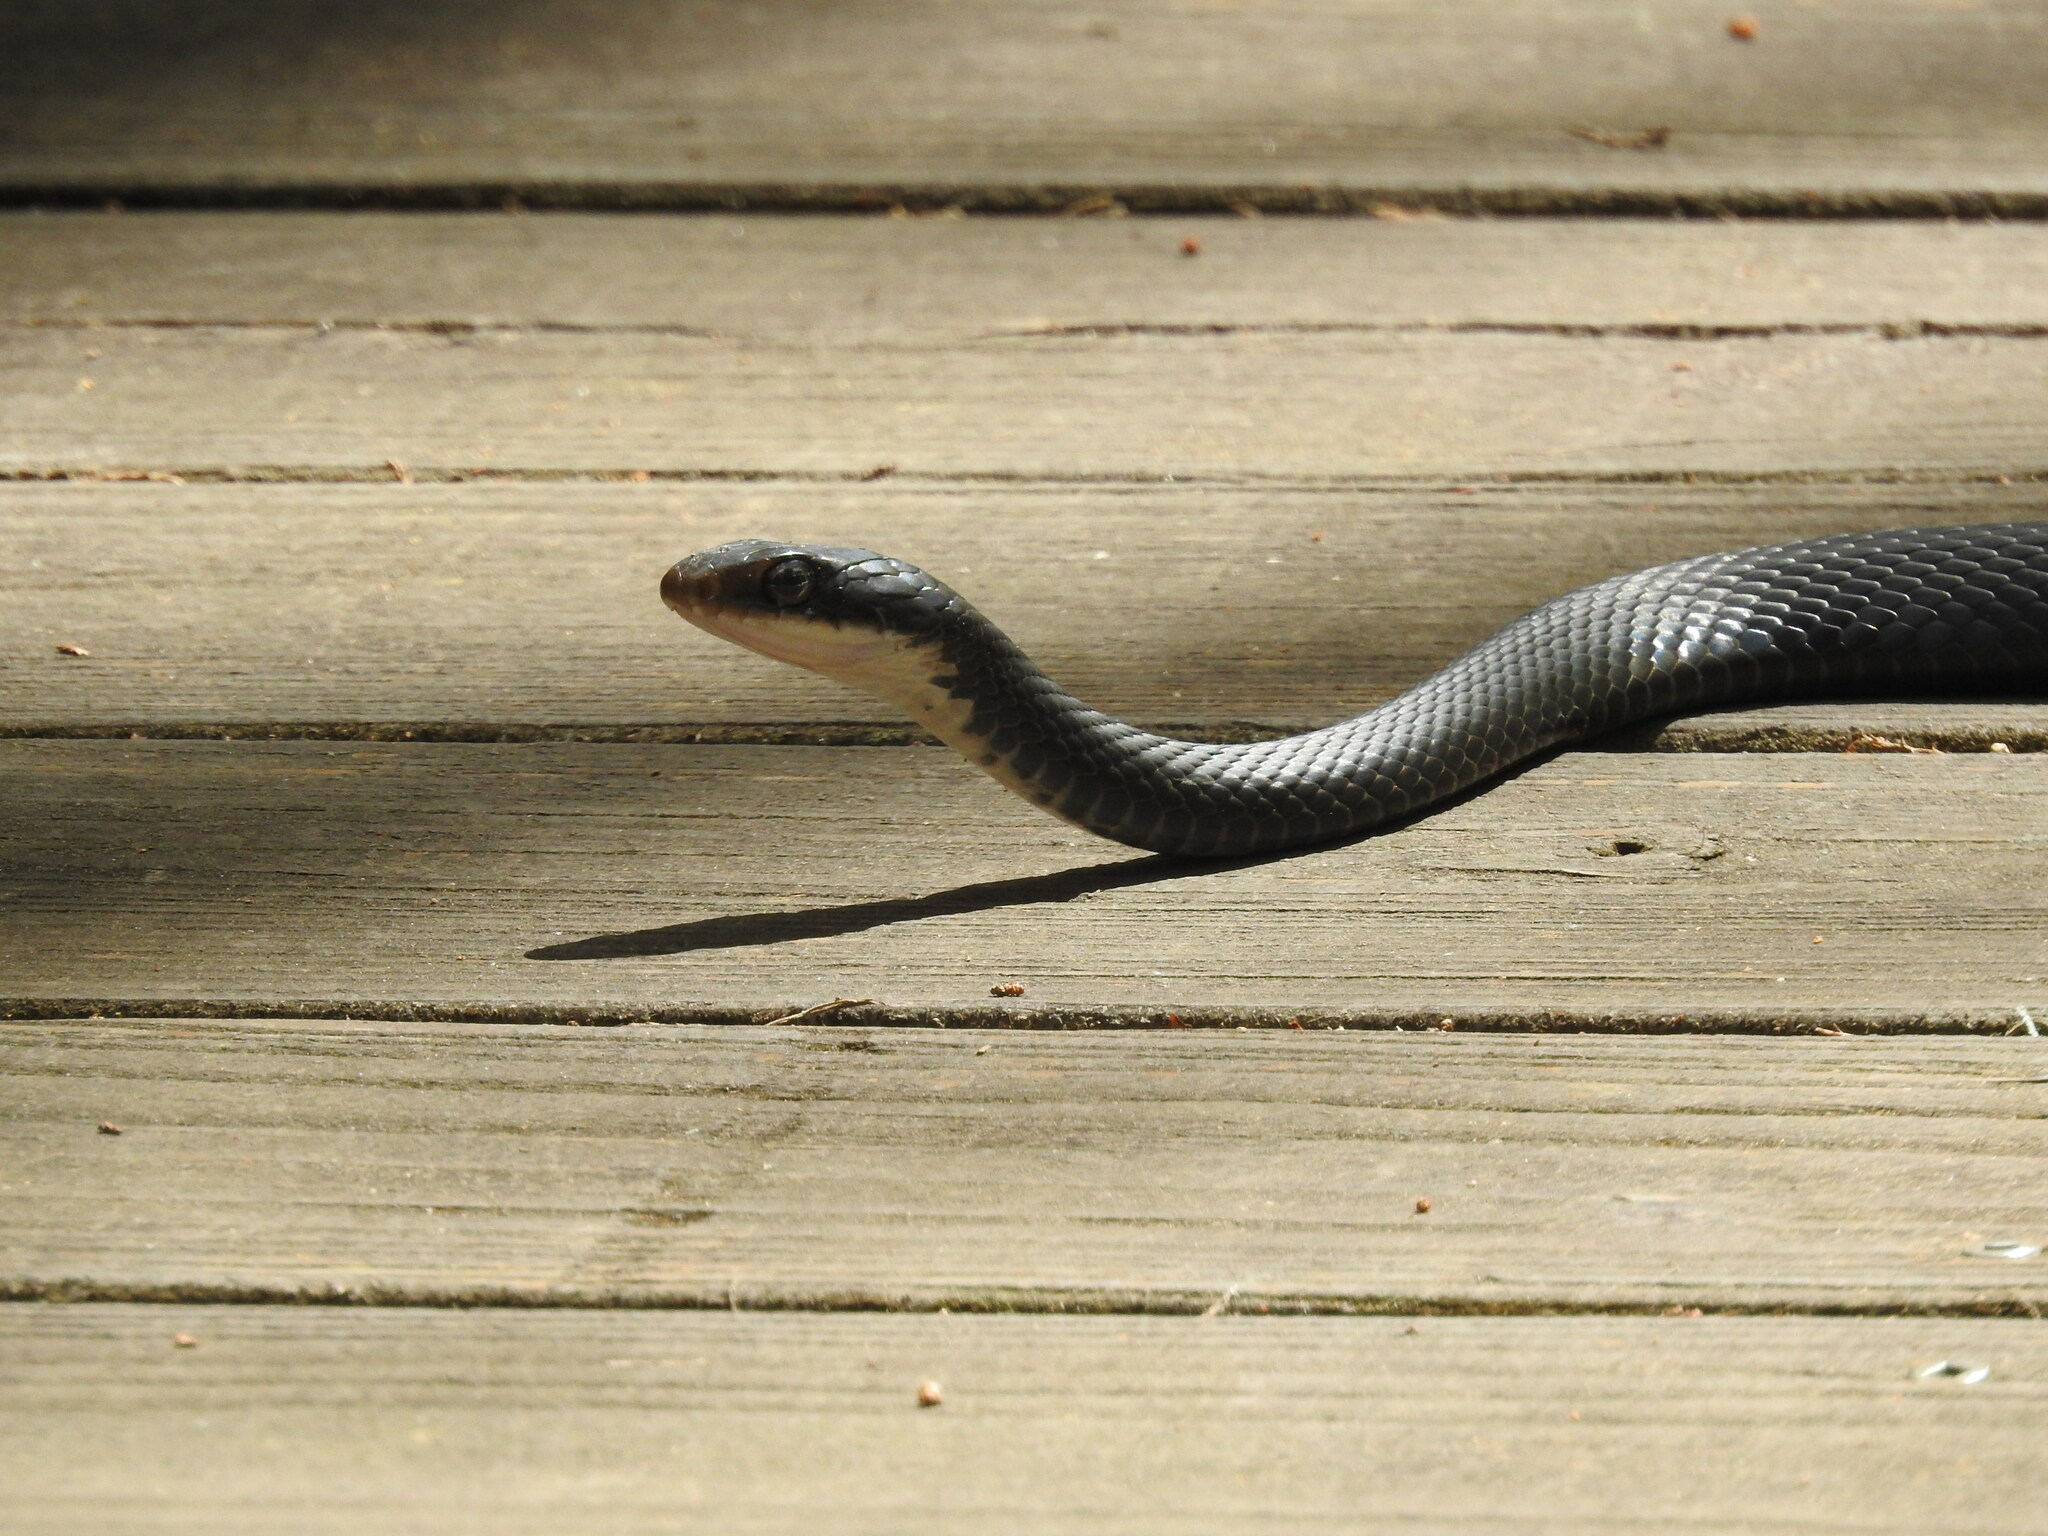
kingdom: Animalia
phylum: Chordata
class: Squamata
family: Colubridae
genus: Coluber
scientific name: Coluber constrictor
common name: Eastern racer
